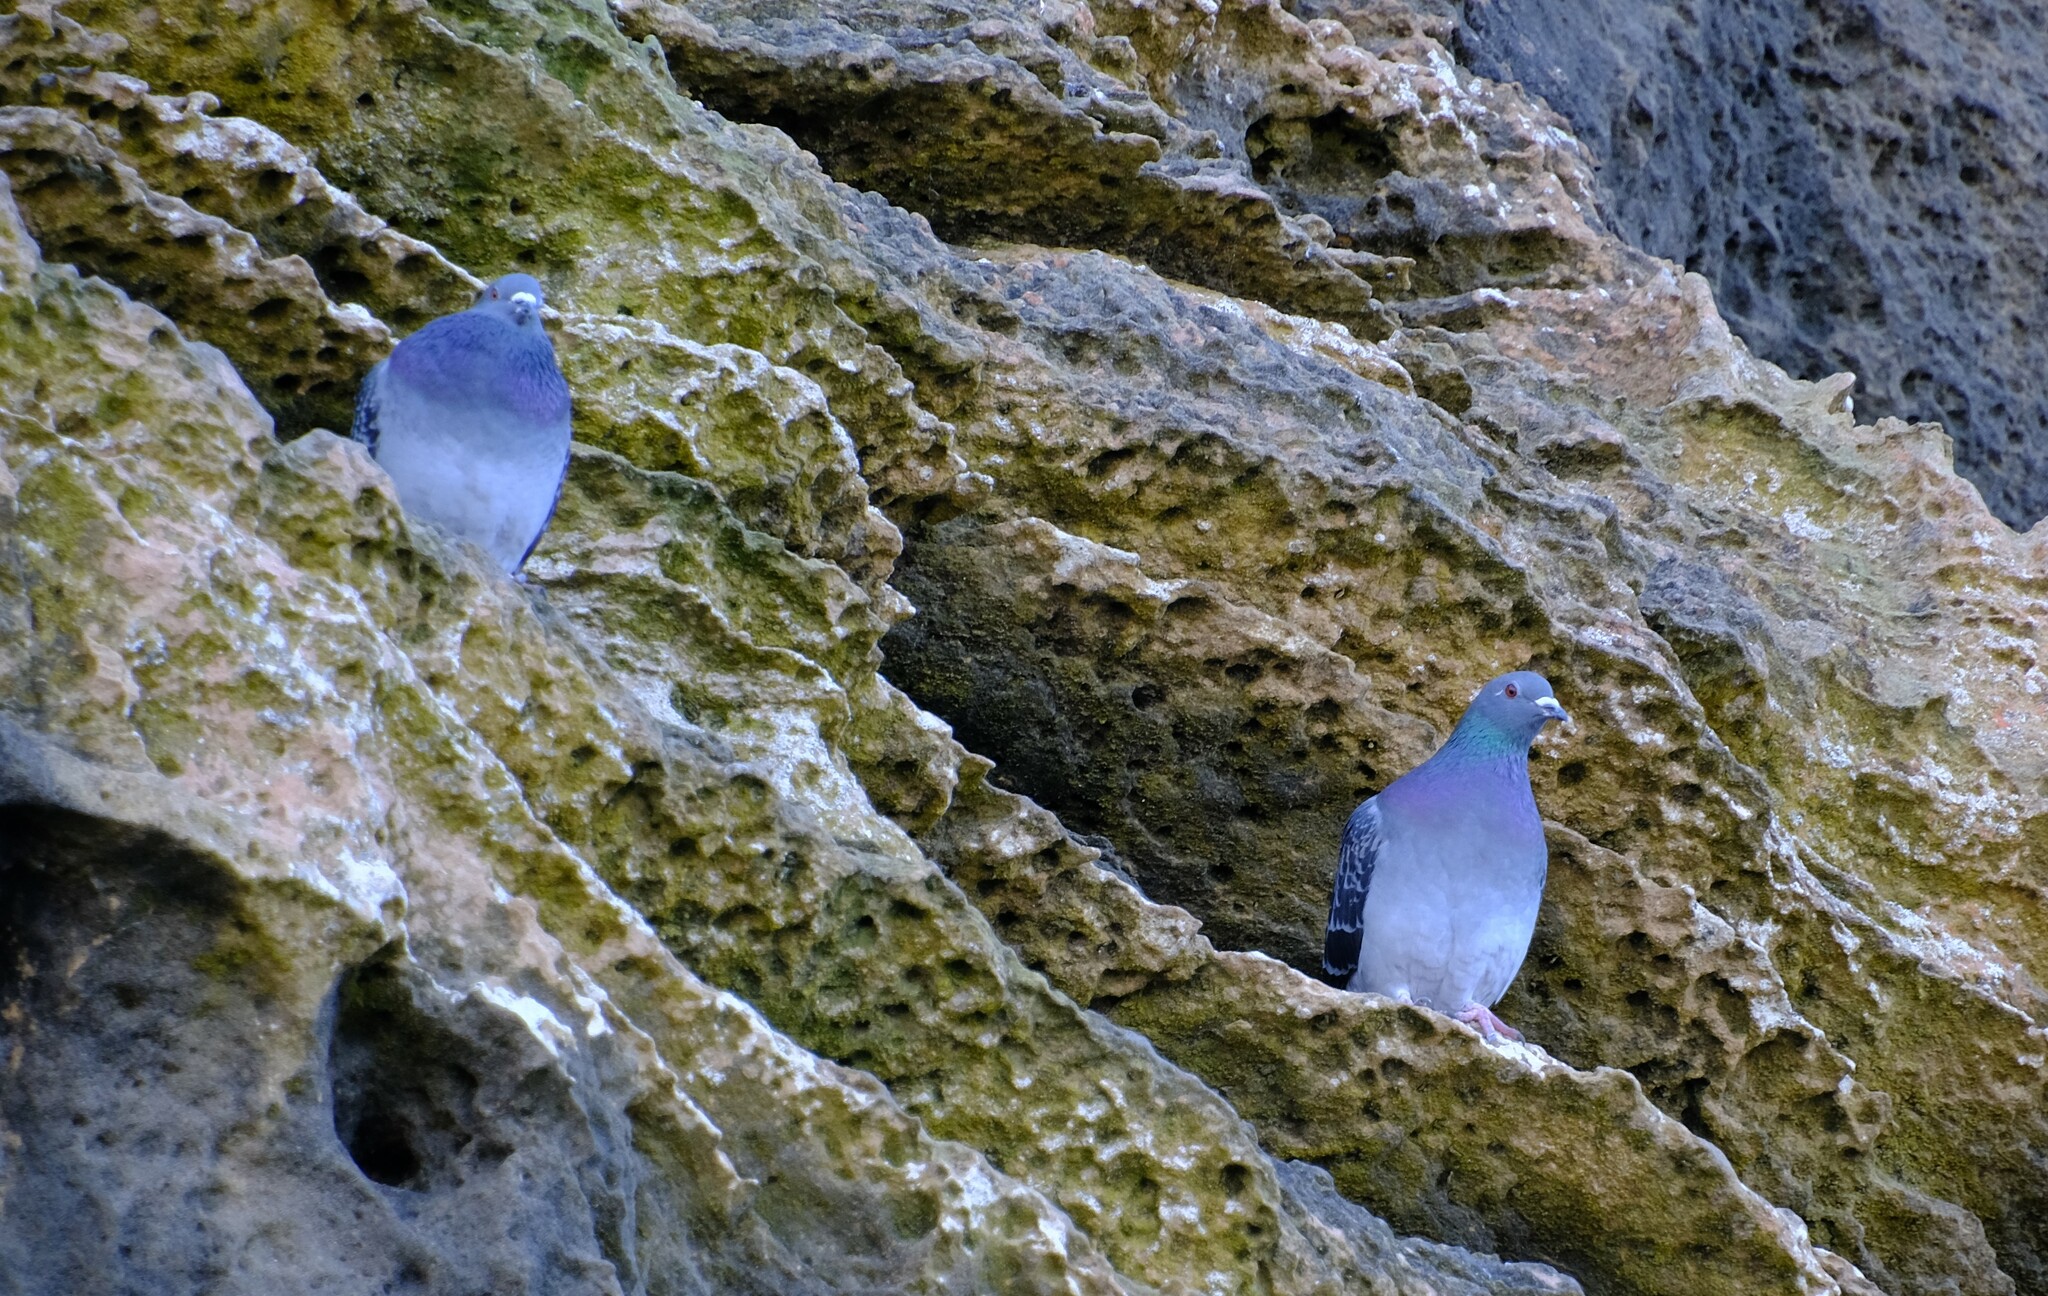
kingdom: Animalia
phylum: Chordata
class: Aves
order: Columbiformes
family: Columbidae
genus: Columba
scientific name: Columba livia
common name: Rock pigeon
